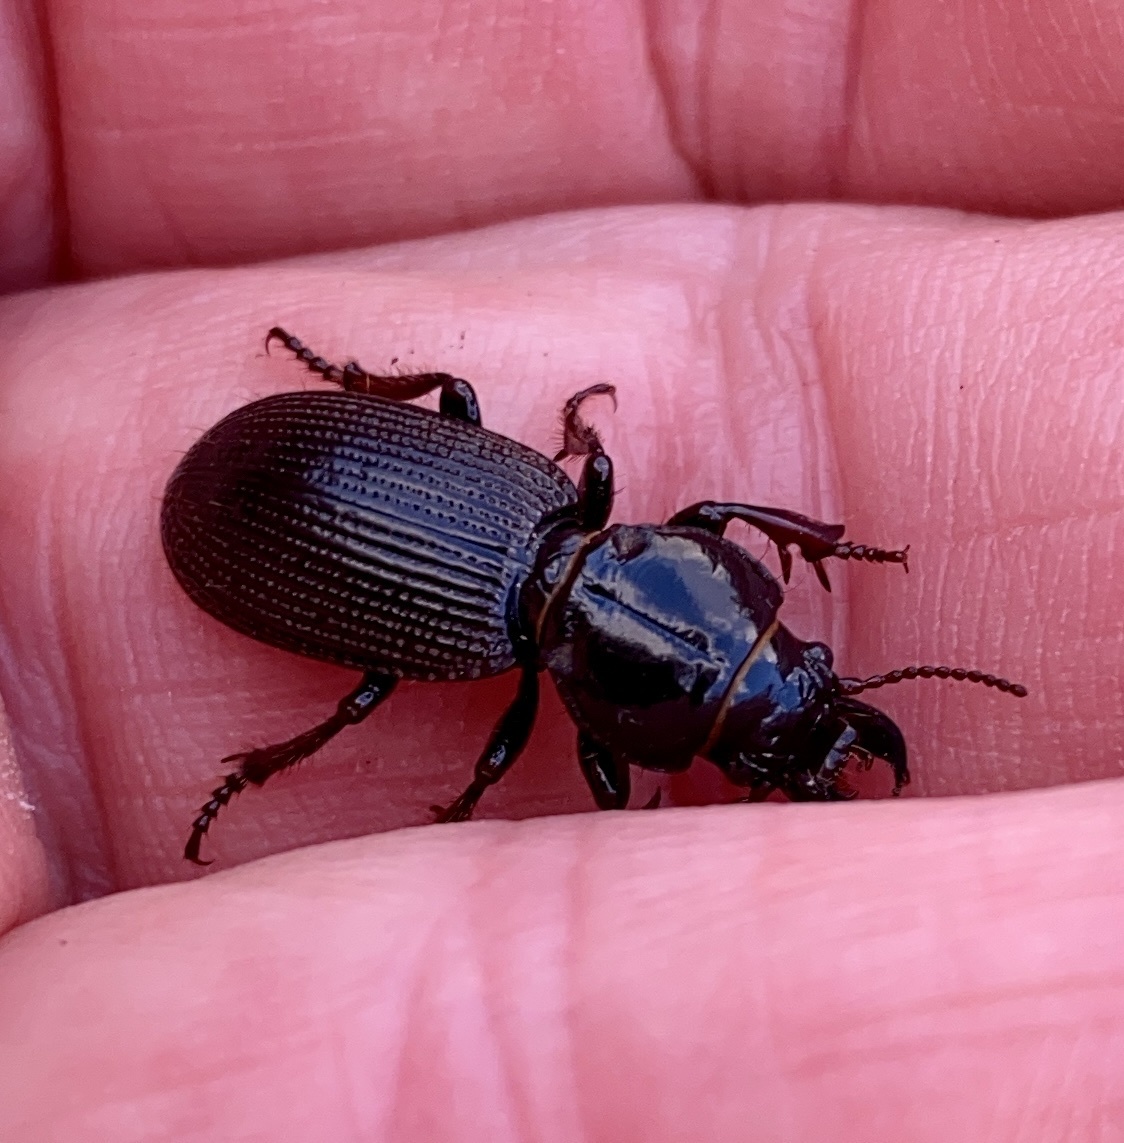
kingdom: Animalia
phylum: Arthropoda
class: Insecta
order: Coleoptera
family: Carabidae
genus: Mecodema
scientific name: Mecodema moniliferum
